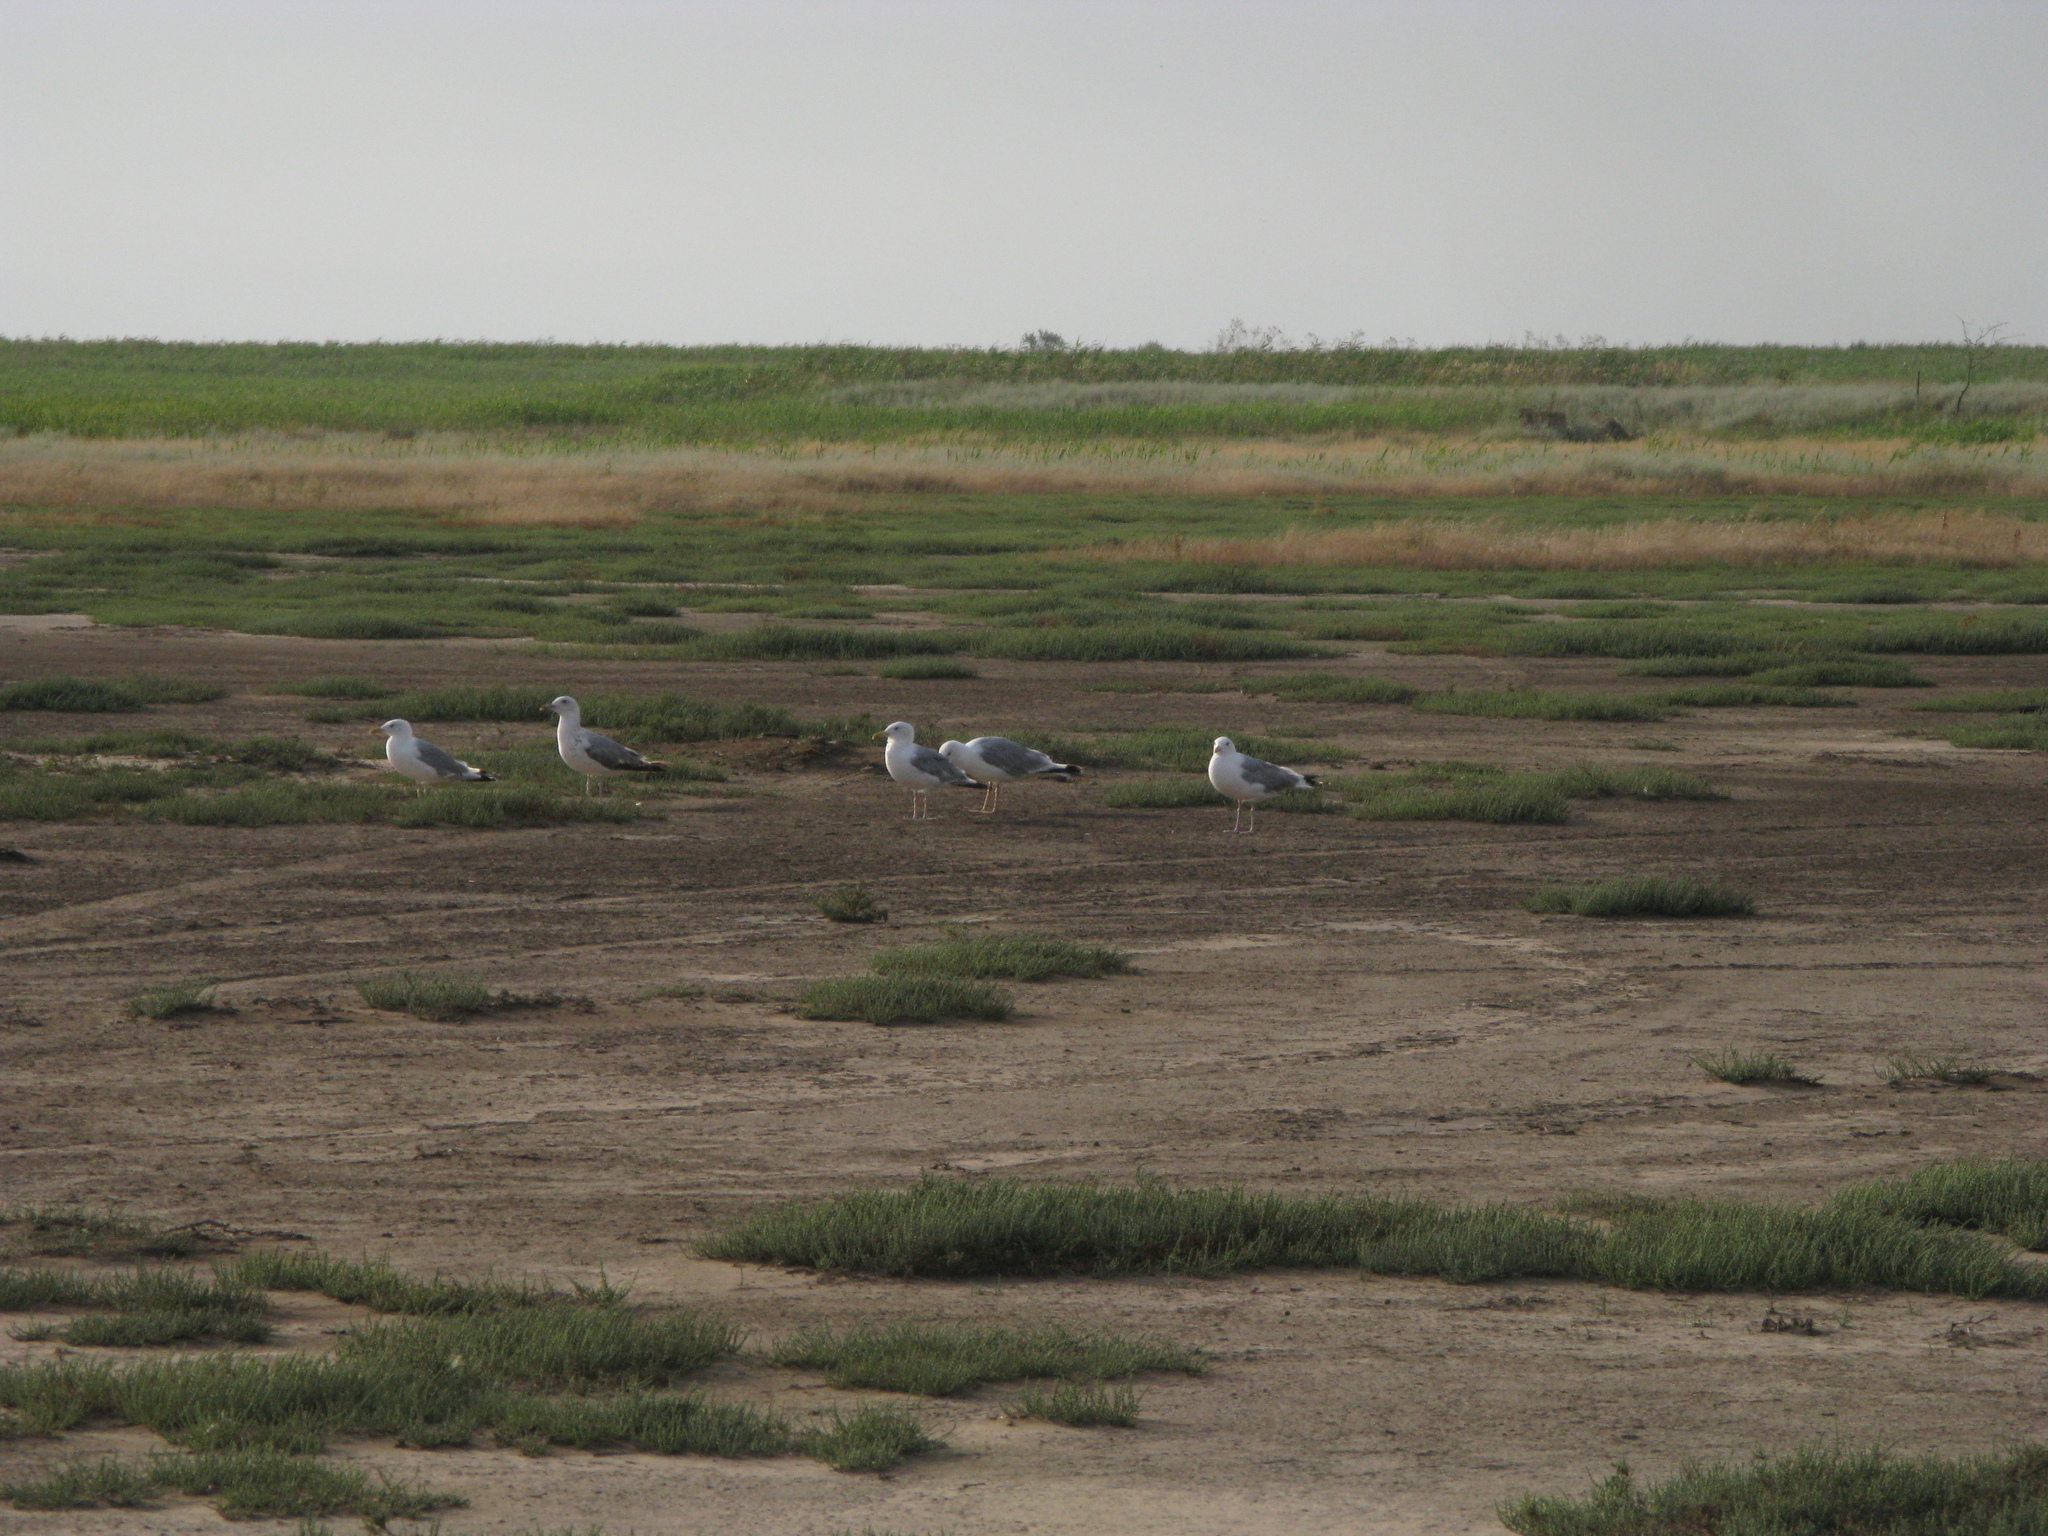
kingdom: Animalia
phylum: Chordata
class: Aves
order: Charadriiformes
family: Laridae
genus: Larus
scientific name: Larus cachinnans
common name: Caspian gull
